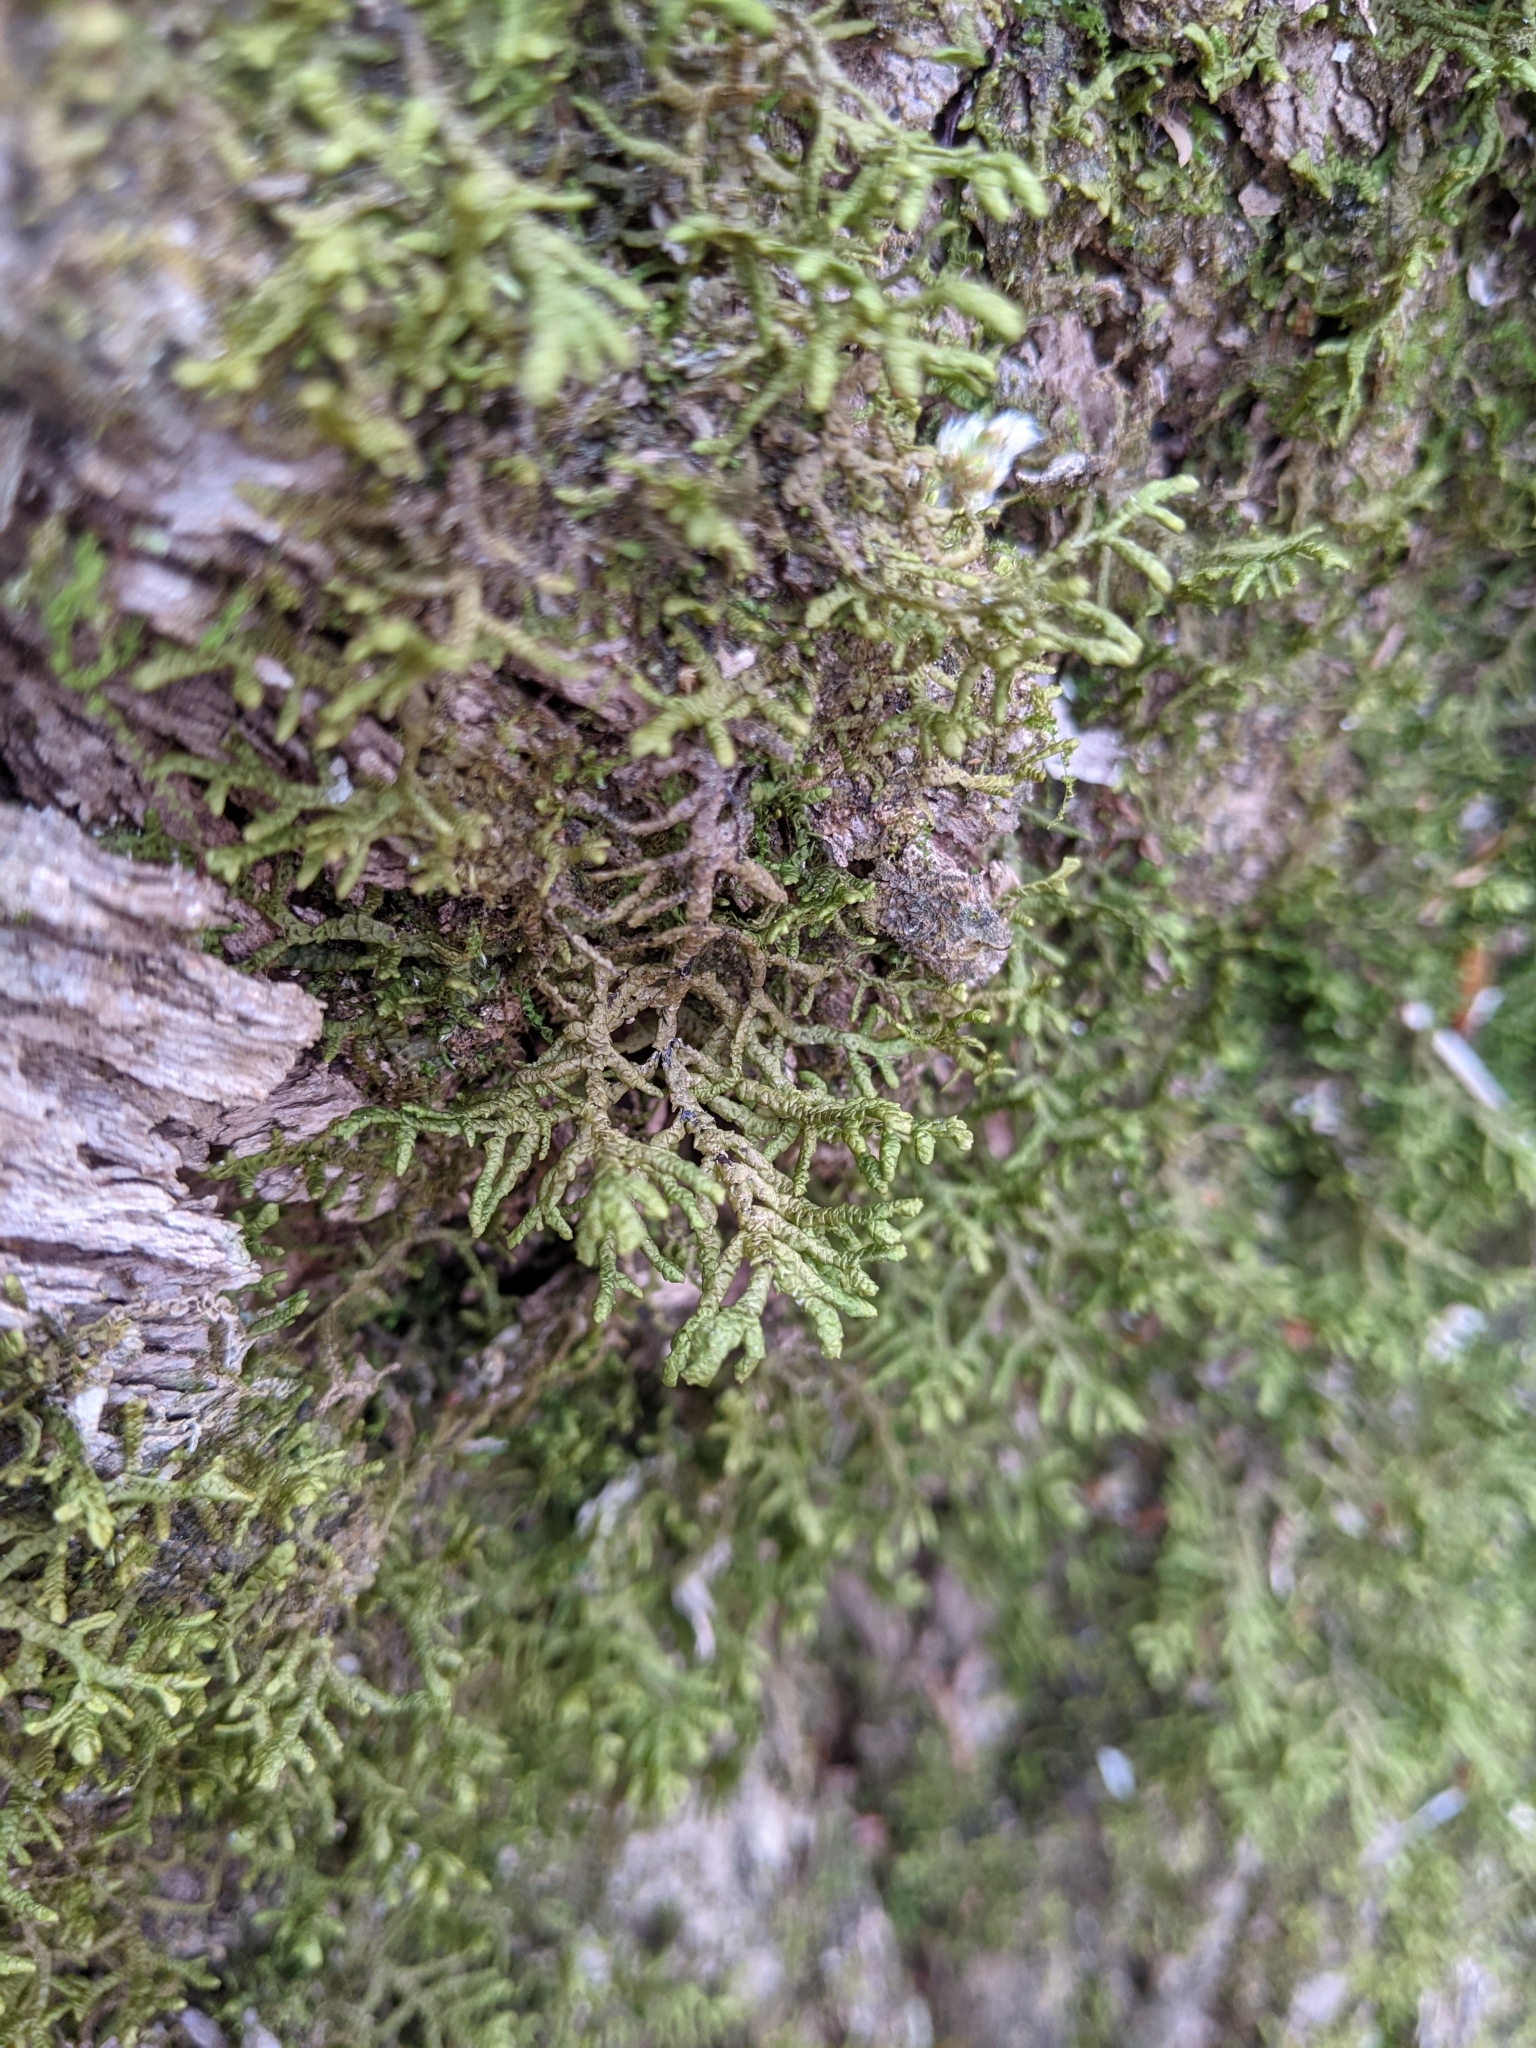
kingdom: Plantae
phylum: Marchantiophyta
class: Jungermanniopsida
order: Porellales
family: Porellaceae
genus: Porella
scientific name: Porella platyphylla
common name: Wall scalewort
